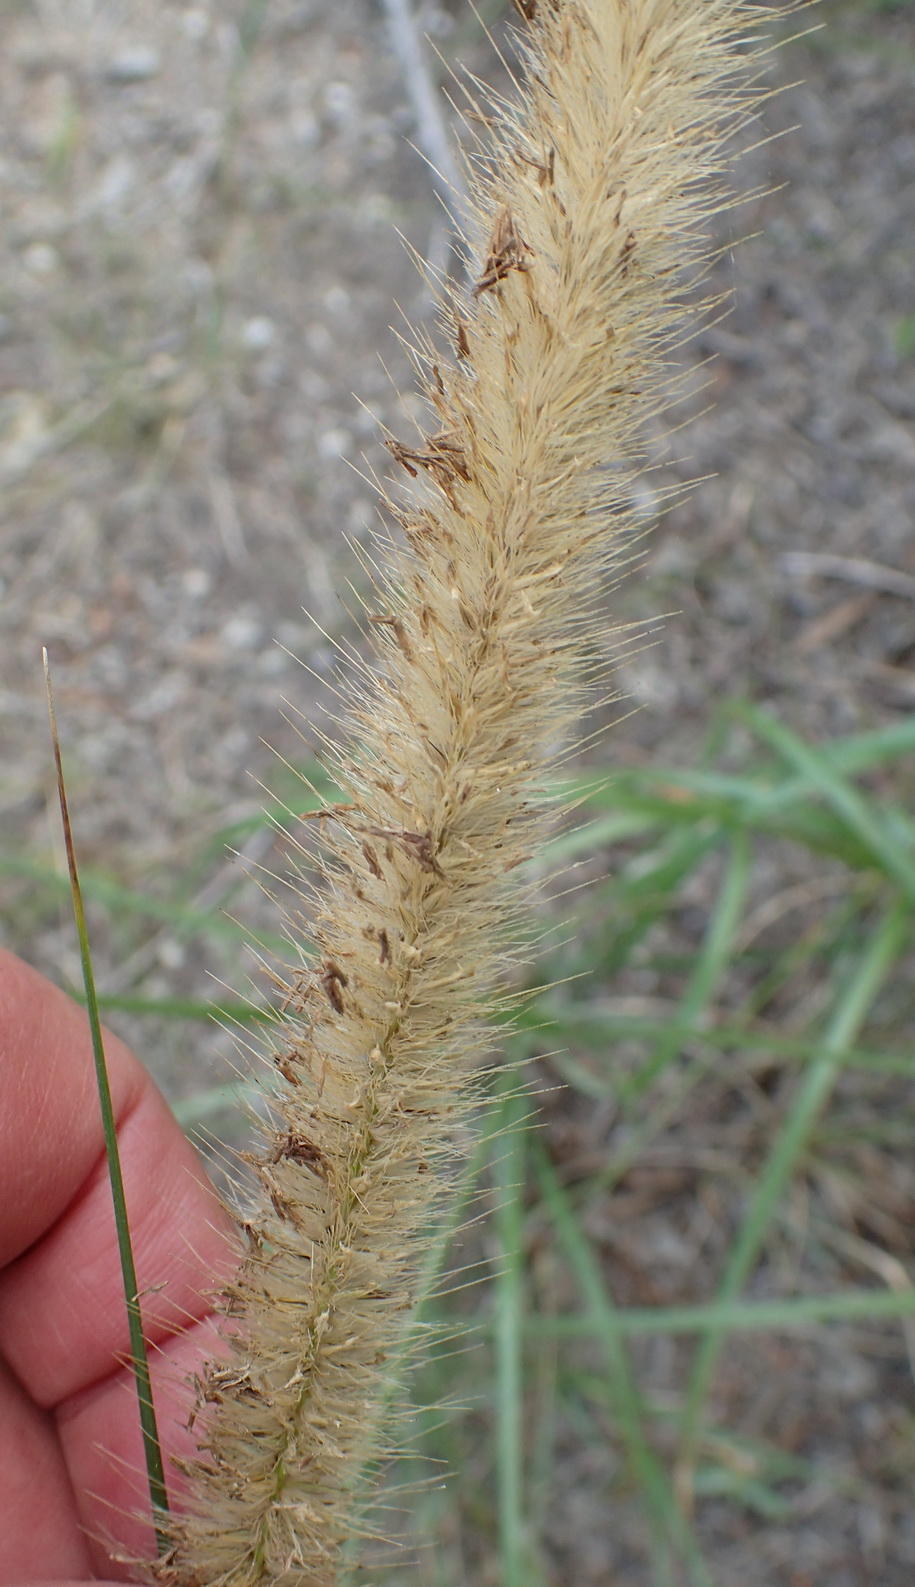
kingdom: Plantae
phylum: Tracheophyta
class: Liliopsida
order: Poales
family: Poaceae
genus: Cenchrus
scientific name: Cenchrus caudatus
